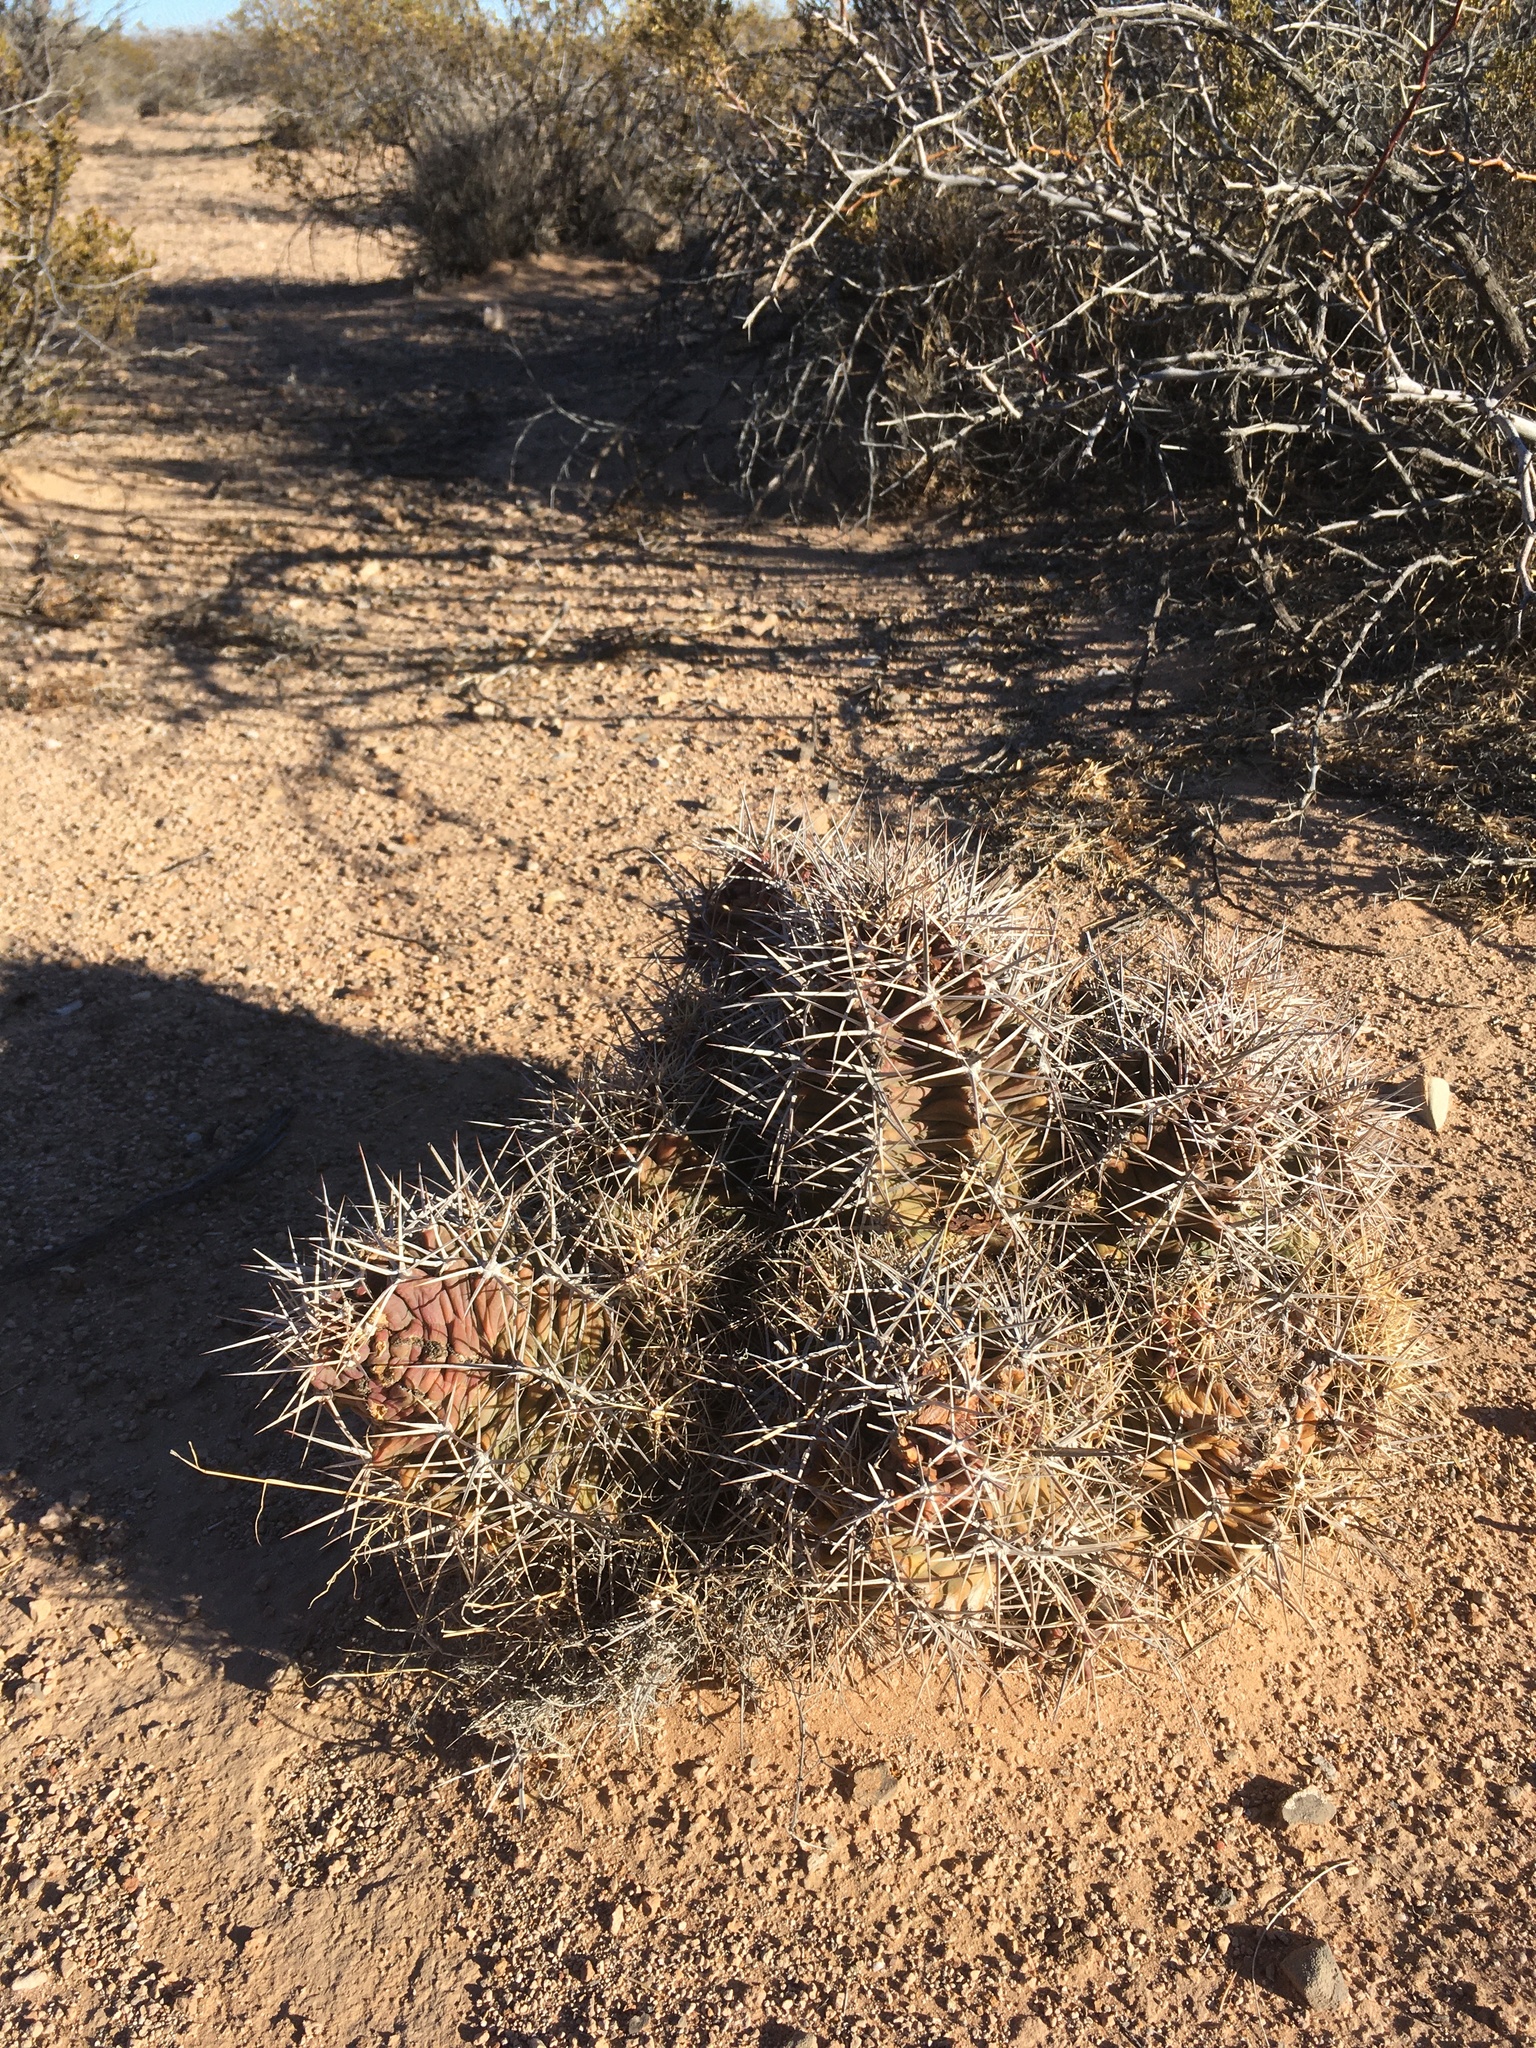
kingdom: Plantae
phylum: Tracheophyta
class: Magnoliopsida
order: Caryophyllales
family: Cactaceae
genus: Echinocereus
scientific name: Echinocereus triglochidiatus
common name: Claretcup hedgehog
